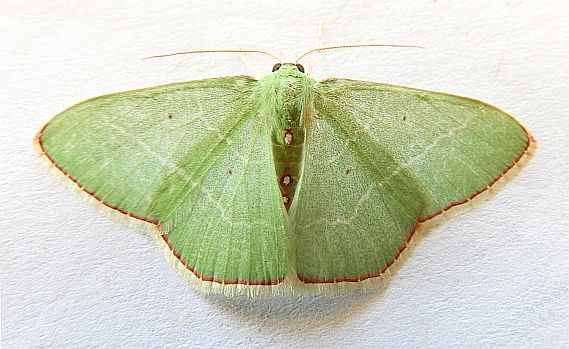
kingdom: Animalia
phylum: Arthropoda
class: Insecta
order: Lepidoptera
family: Geometridae
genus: Nemoria
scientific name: Nemoria zelotes
